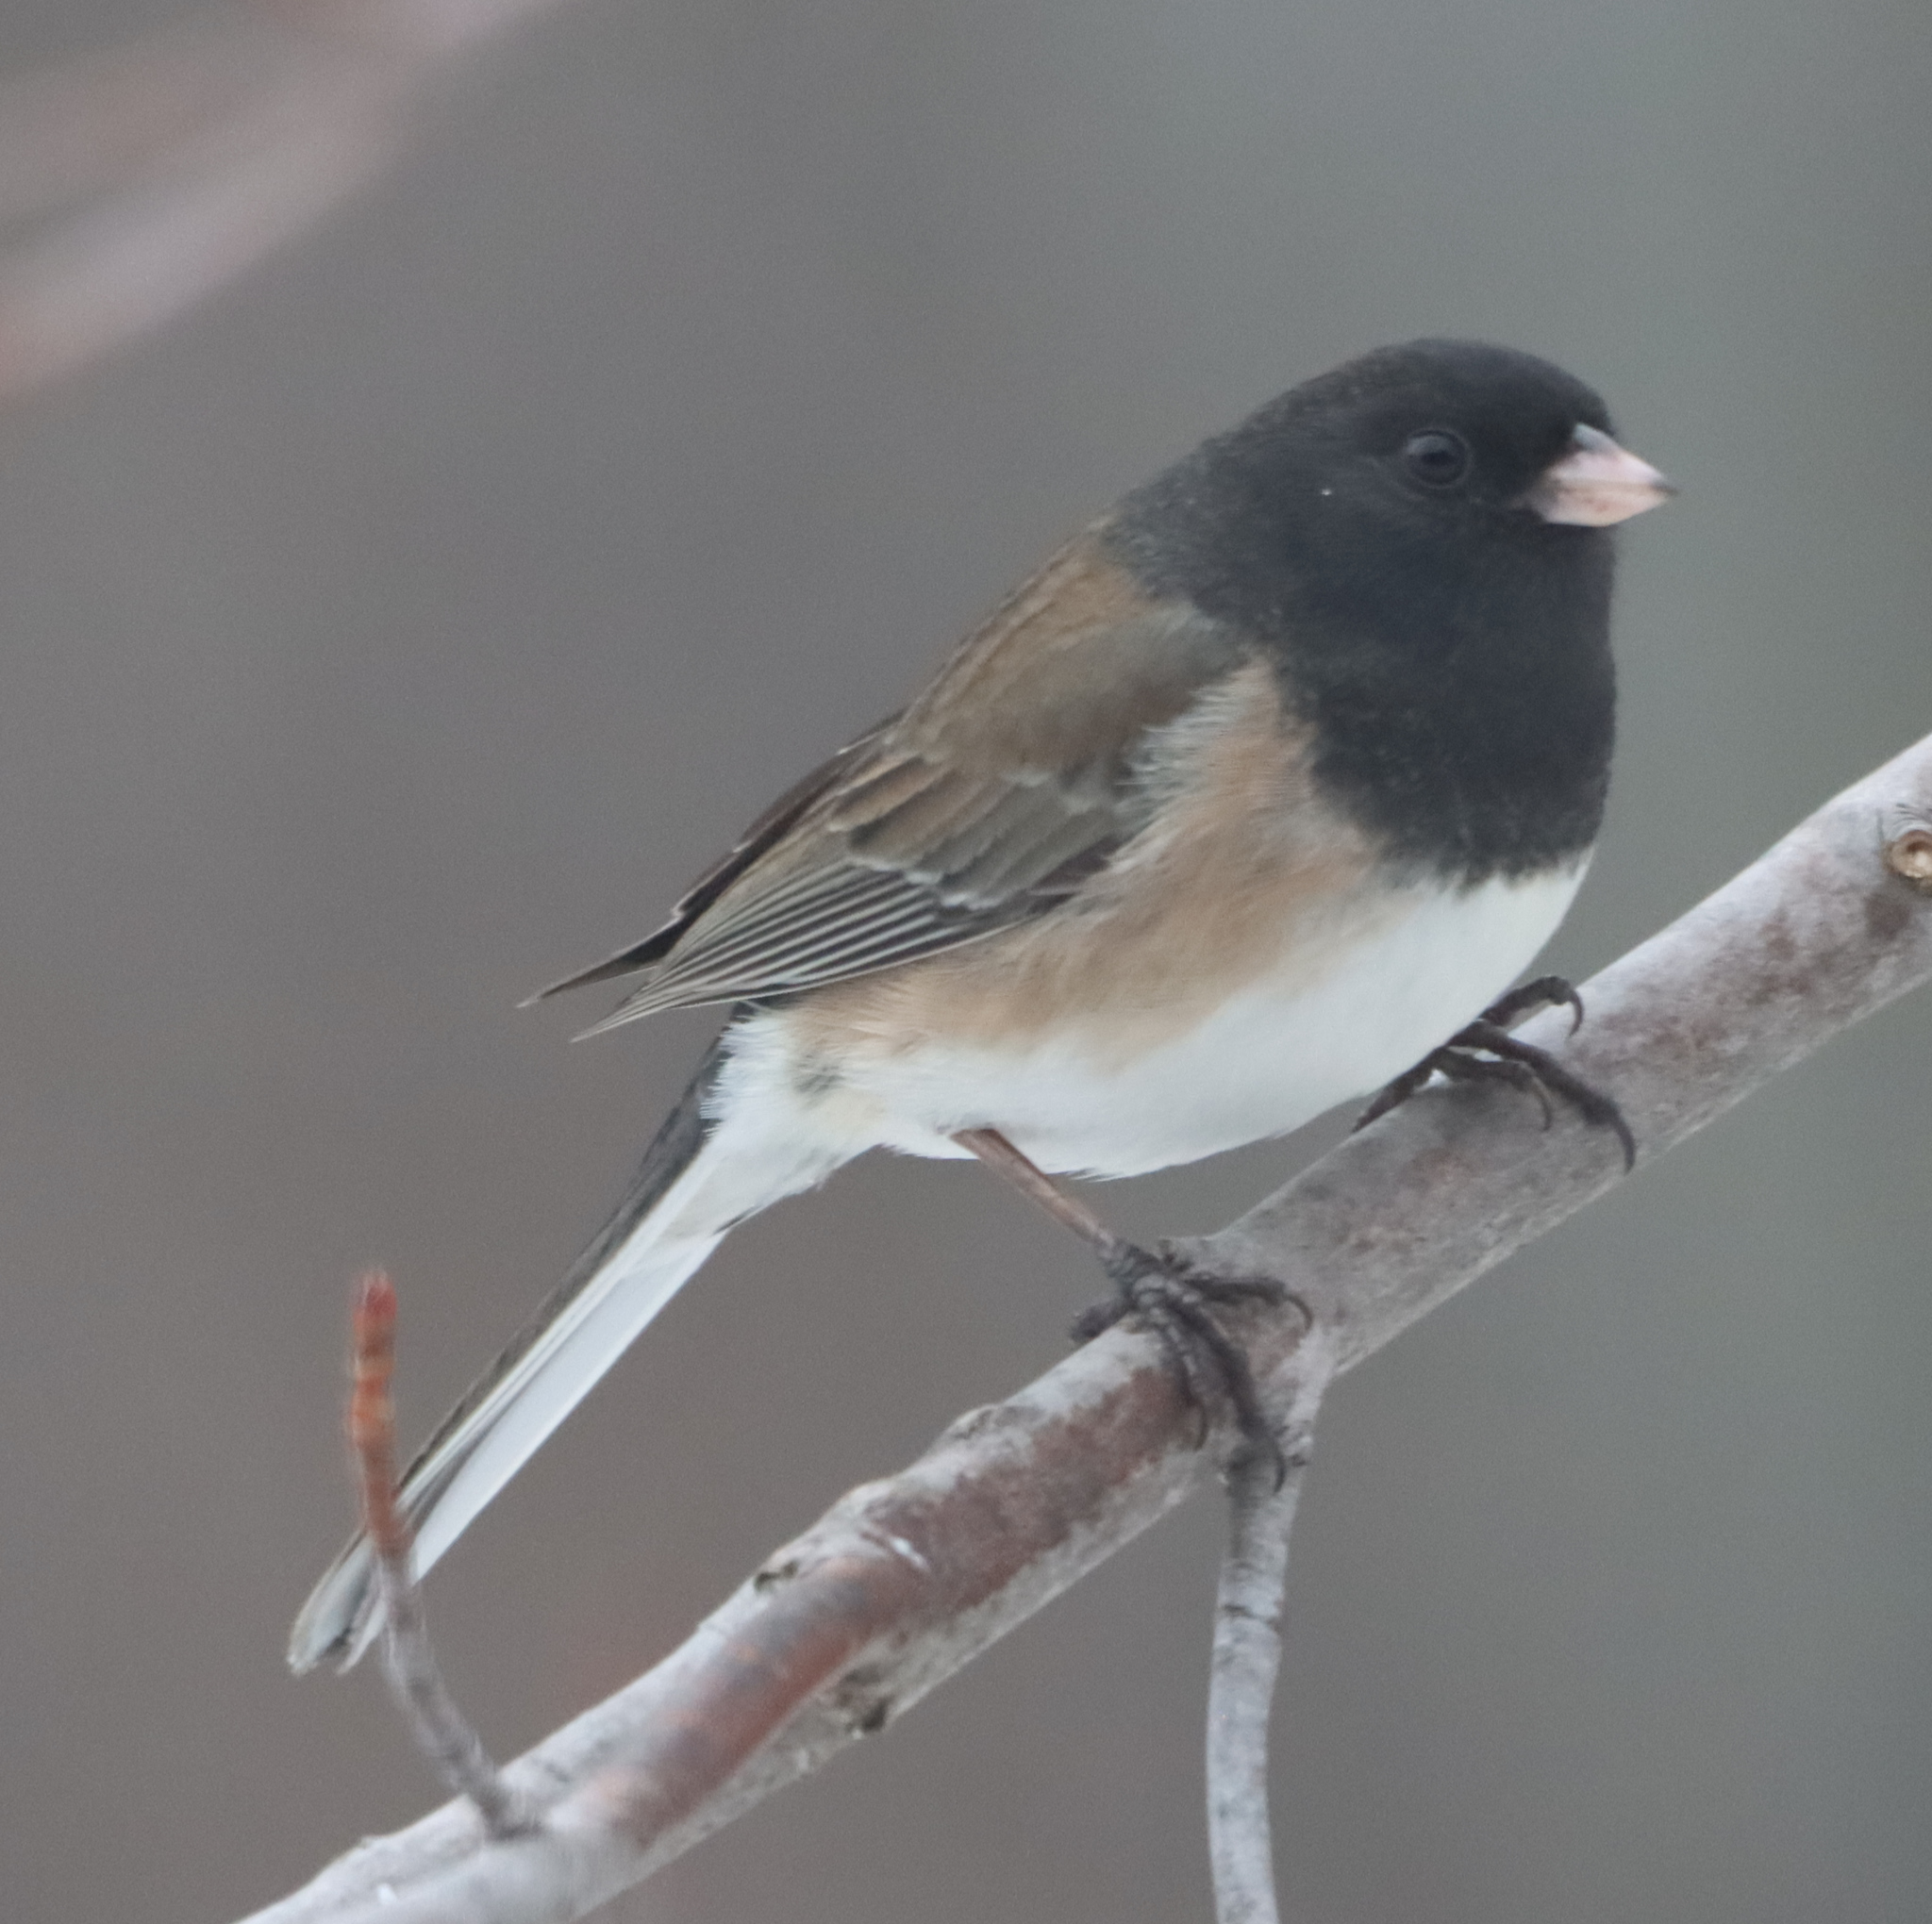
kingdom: Animalia
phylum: Chordata
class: Aves
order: Passeriformes
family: Passerellidae
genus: Junco
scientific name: Junco hyemalis
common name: Dark-eyed junco
